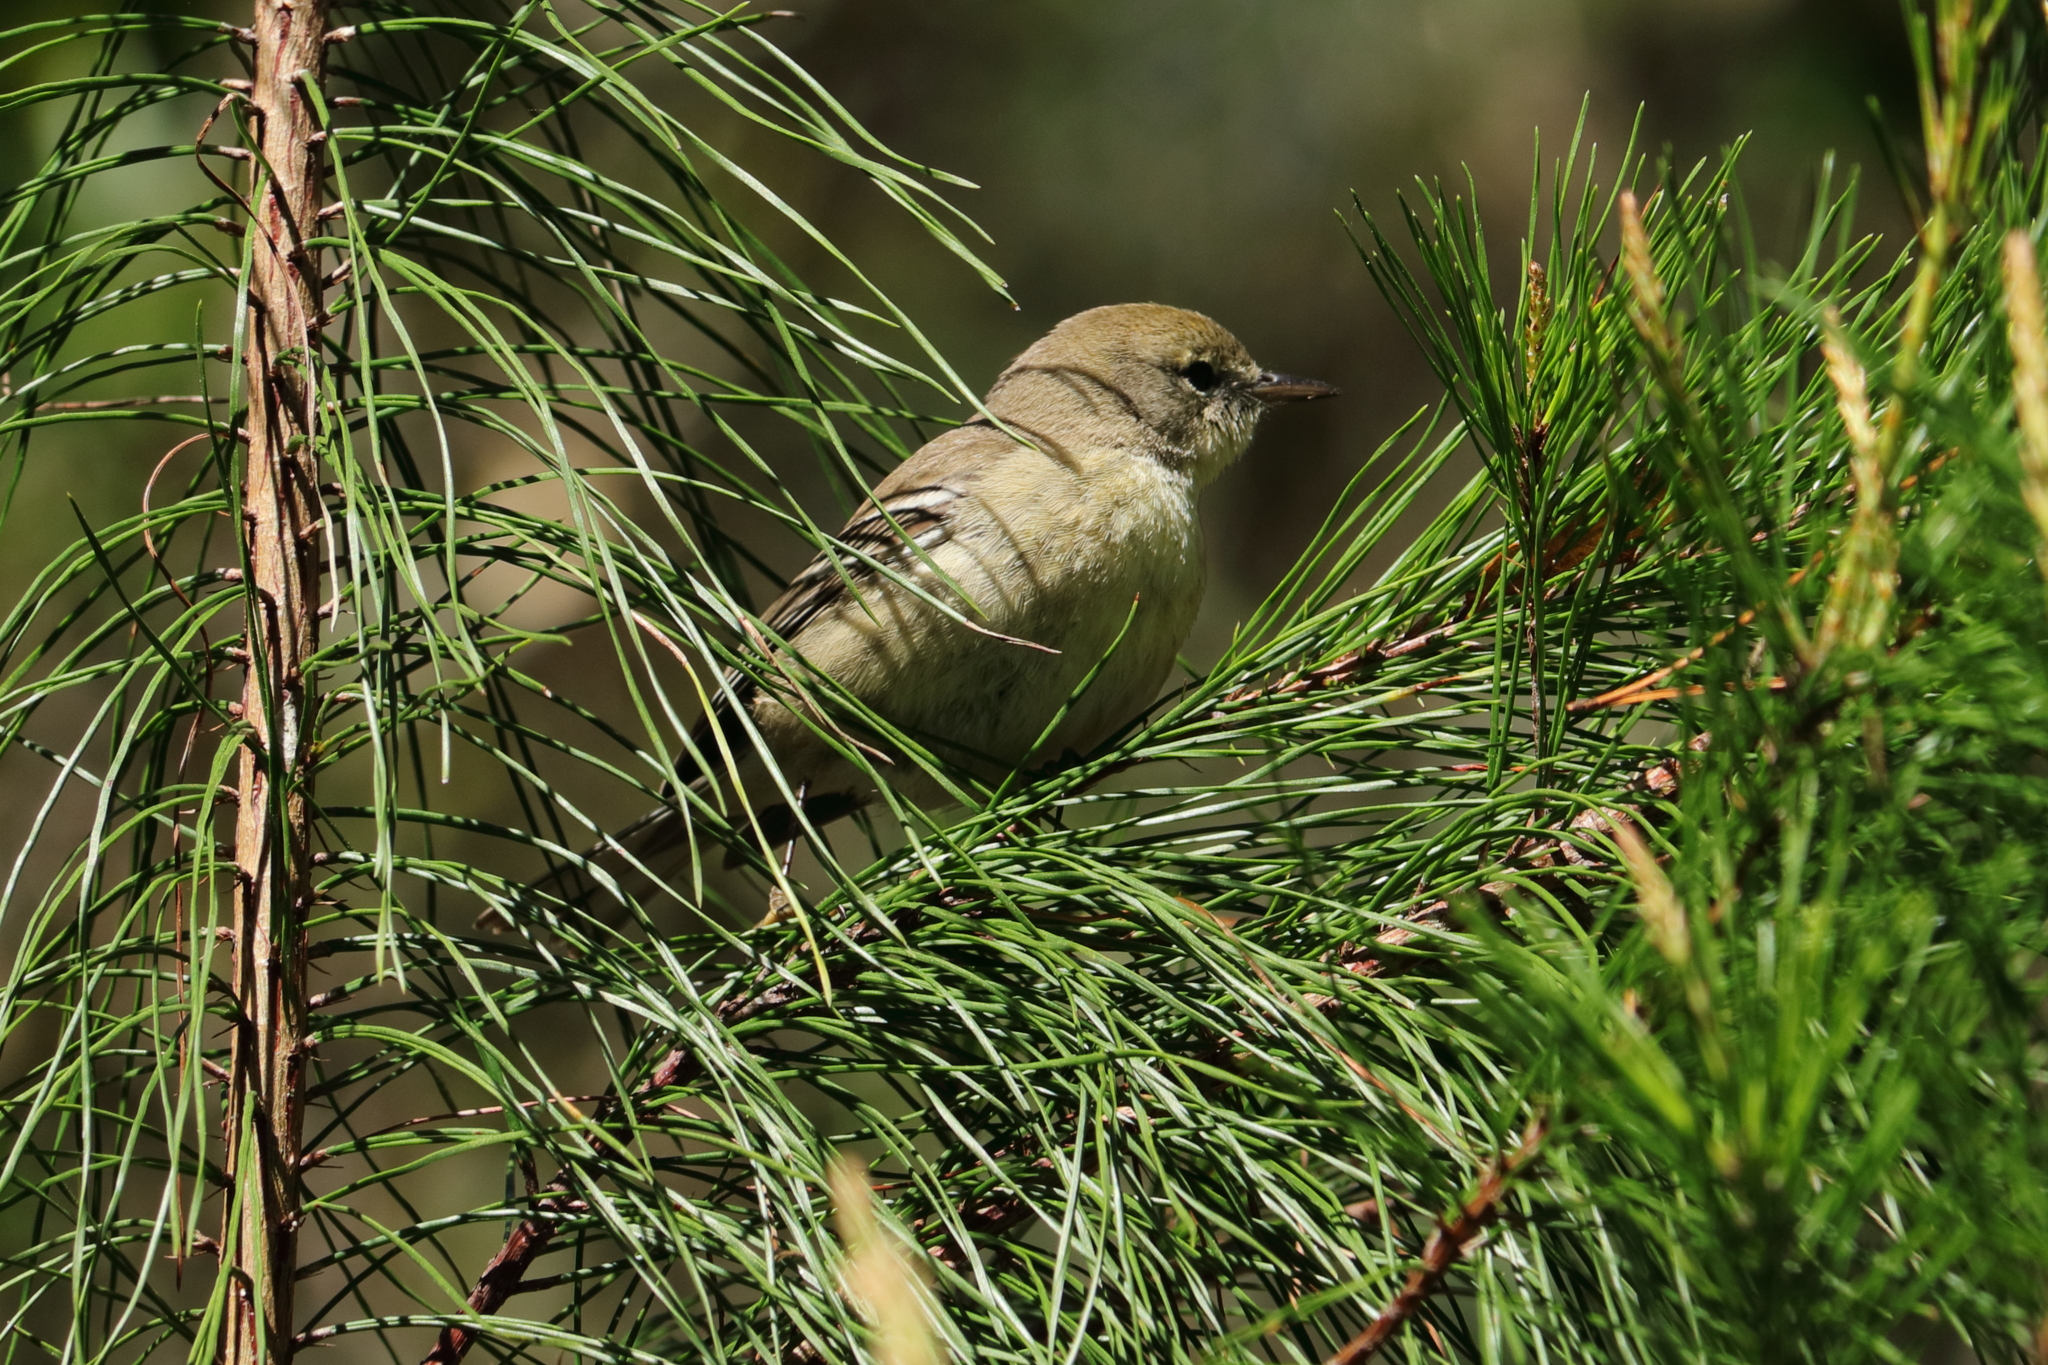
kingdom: Animalia
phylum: Chordata
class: Aves
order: Passeriformes
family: Parulidae
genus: Setophaga
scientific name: Setophaga pinus
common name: Pine warbler
